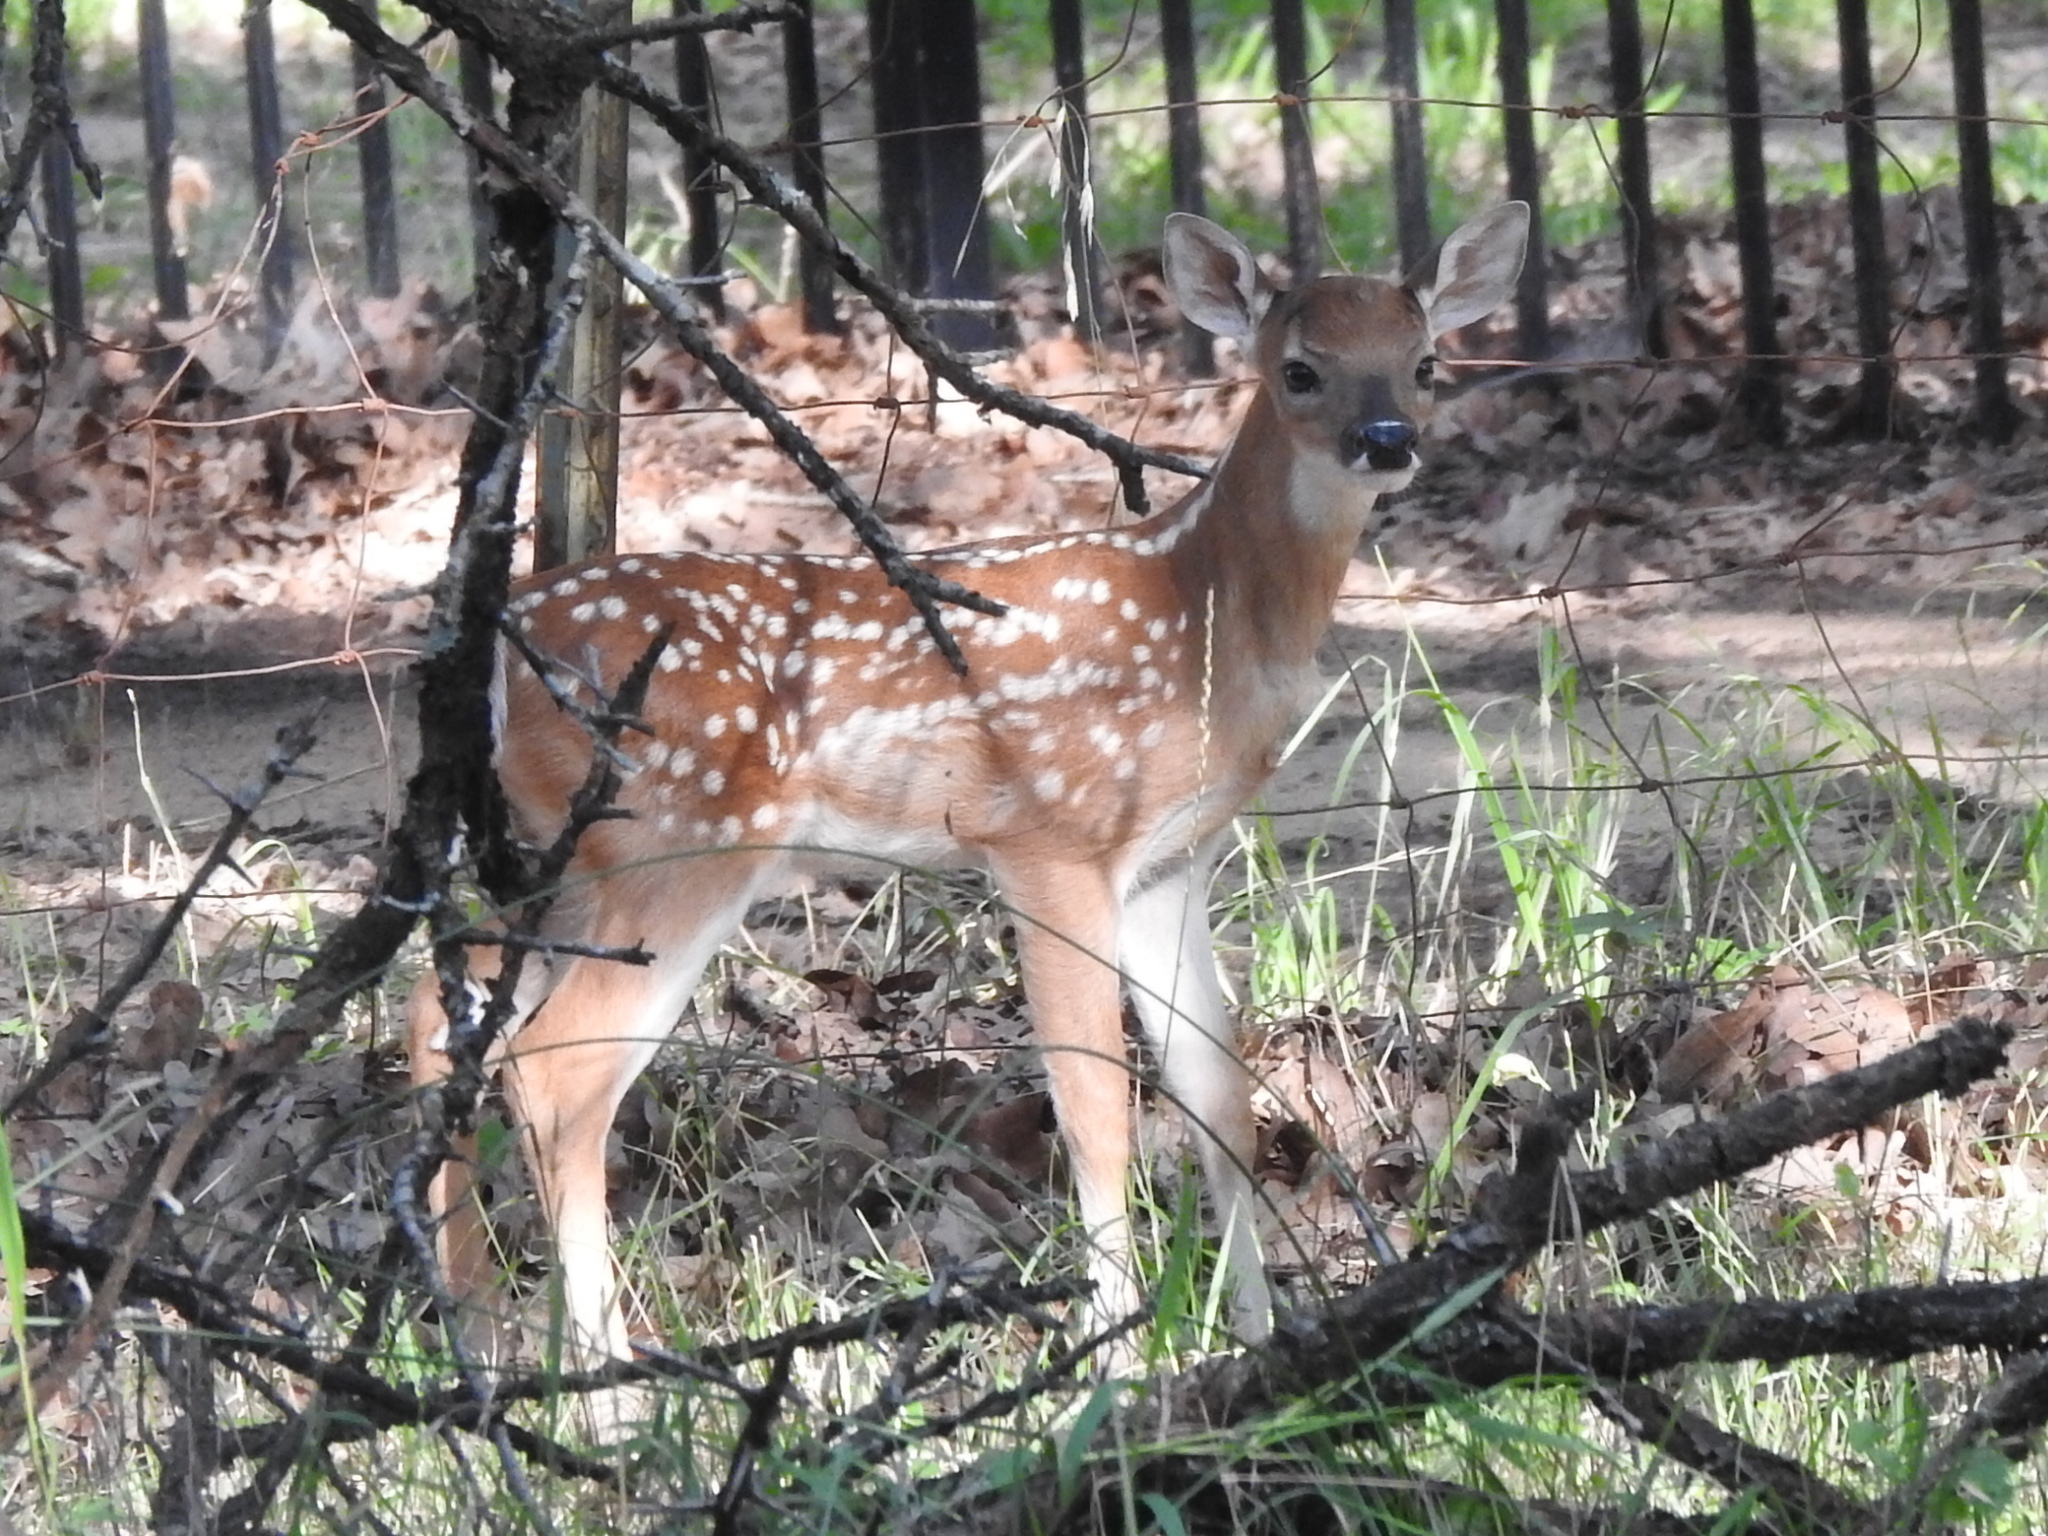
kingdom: Animalia
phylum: Chordata
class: Mammalia
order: Artiodactyla
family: Cervidae
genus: Odocoileus
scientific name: Odocoileus virginianus
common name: White-tailed deer
